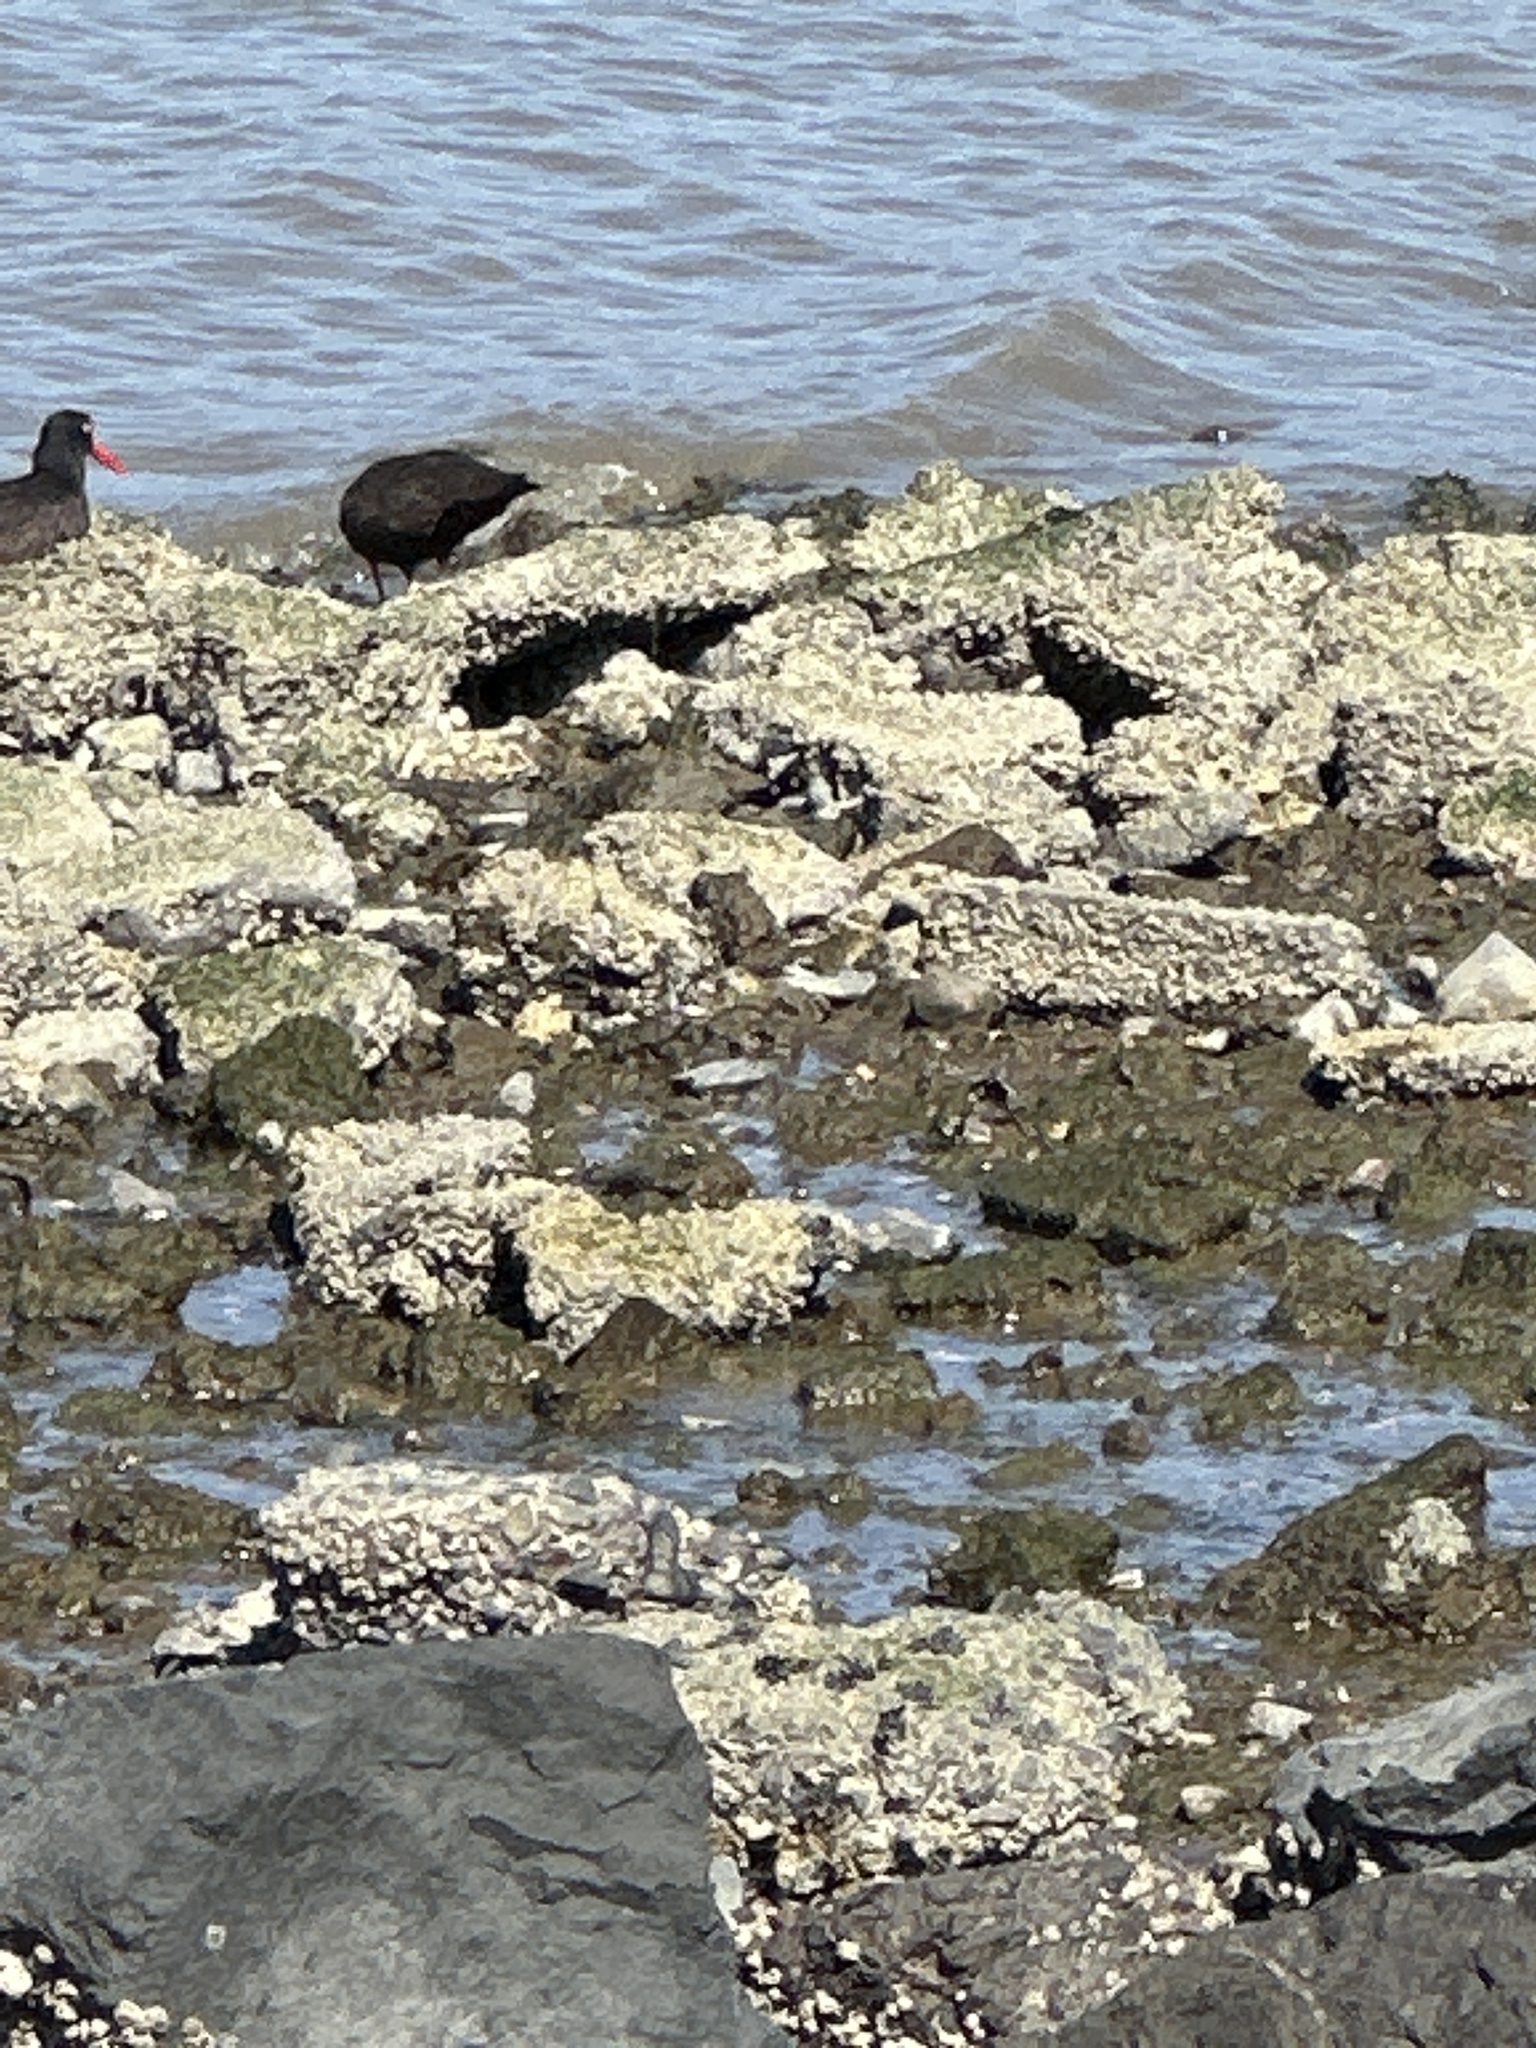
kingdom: Animalia
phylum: Chordata
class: Aves
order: Charadriiformes
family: Haematopodidae
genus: Haematopus
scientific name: Haematopus bachmani
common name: Black oystercatcher
